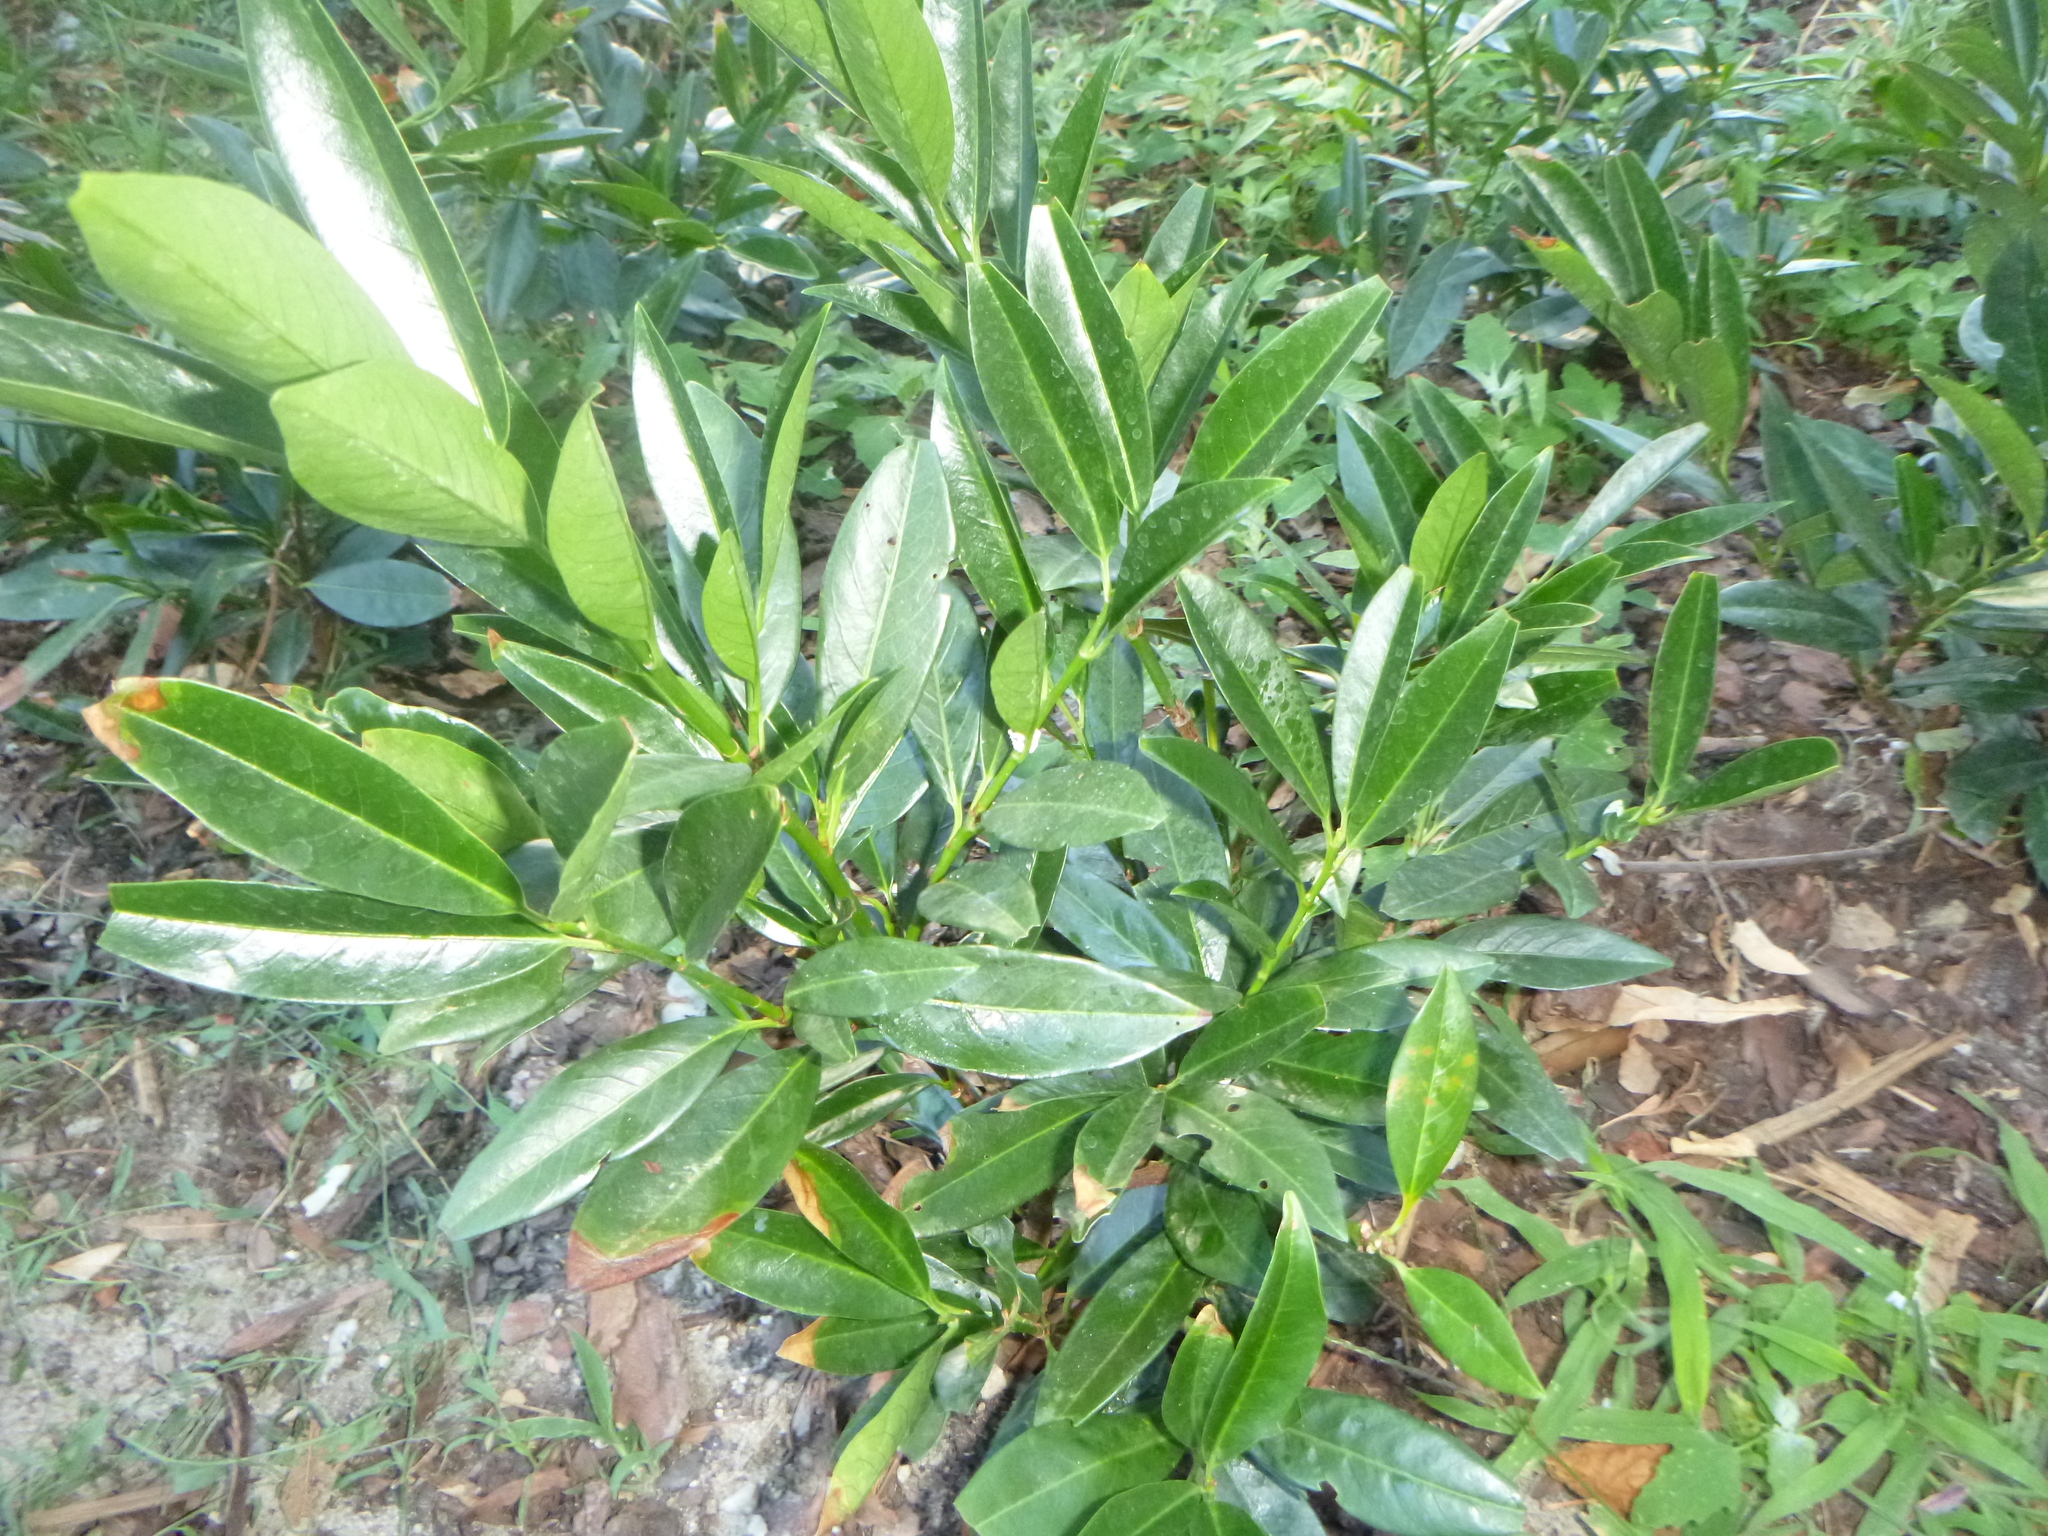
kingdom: Plantae
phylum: Tracheophyta
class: Magnoliopsida
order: Rosales
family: Rosaceae
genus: Prunus
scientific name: Prunus laurocerasus
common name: Cherry laurel
